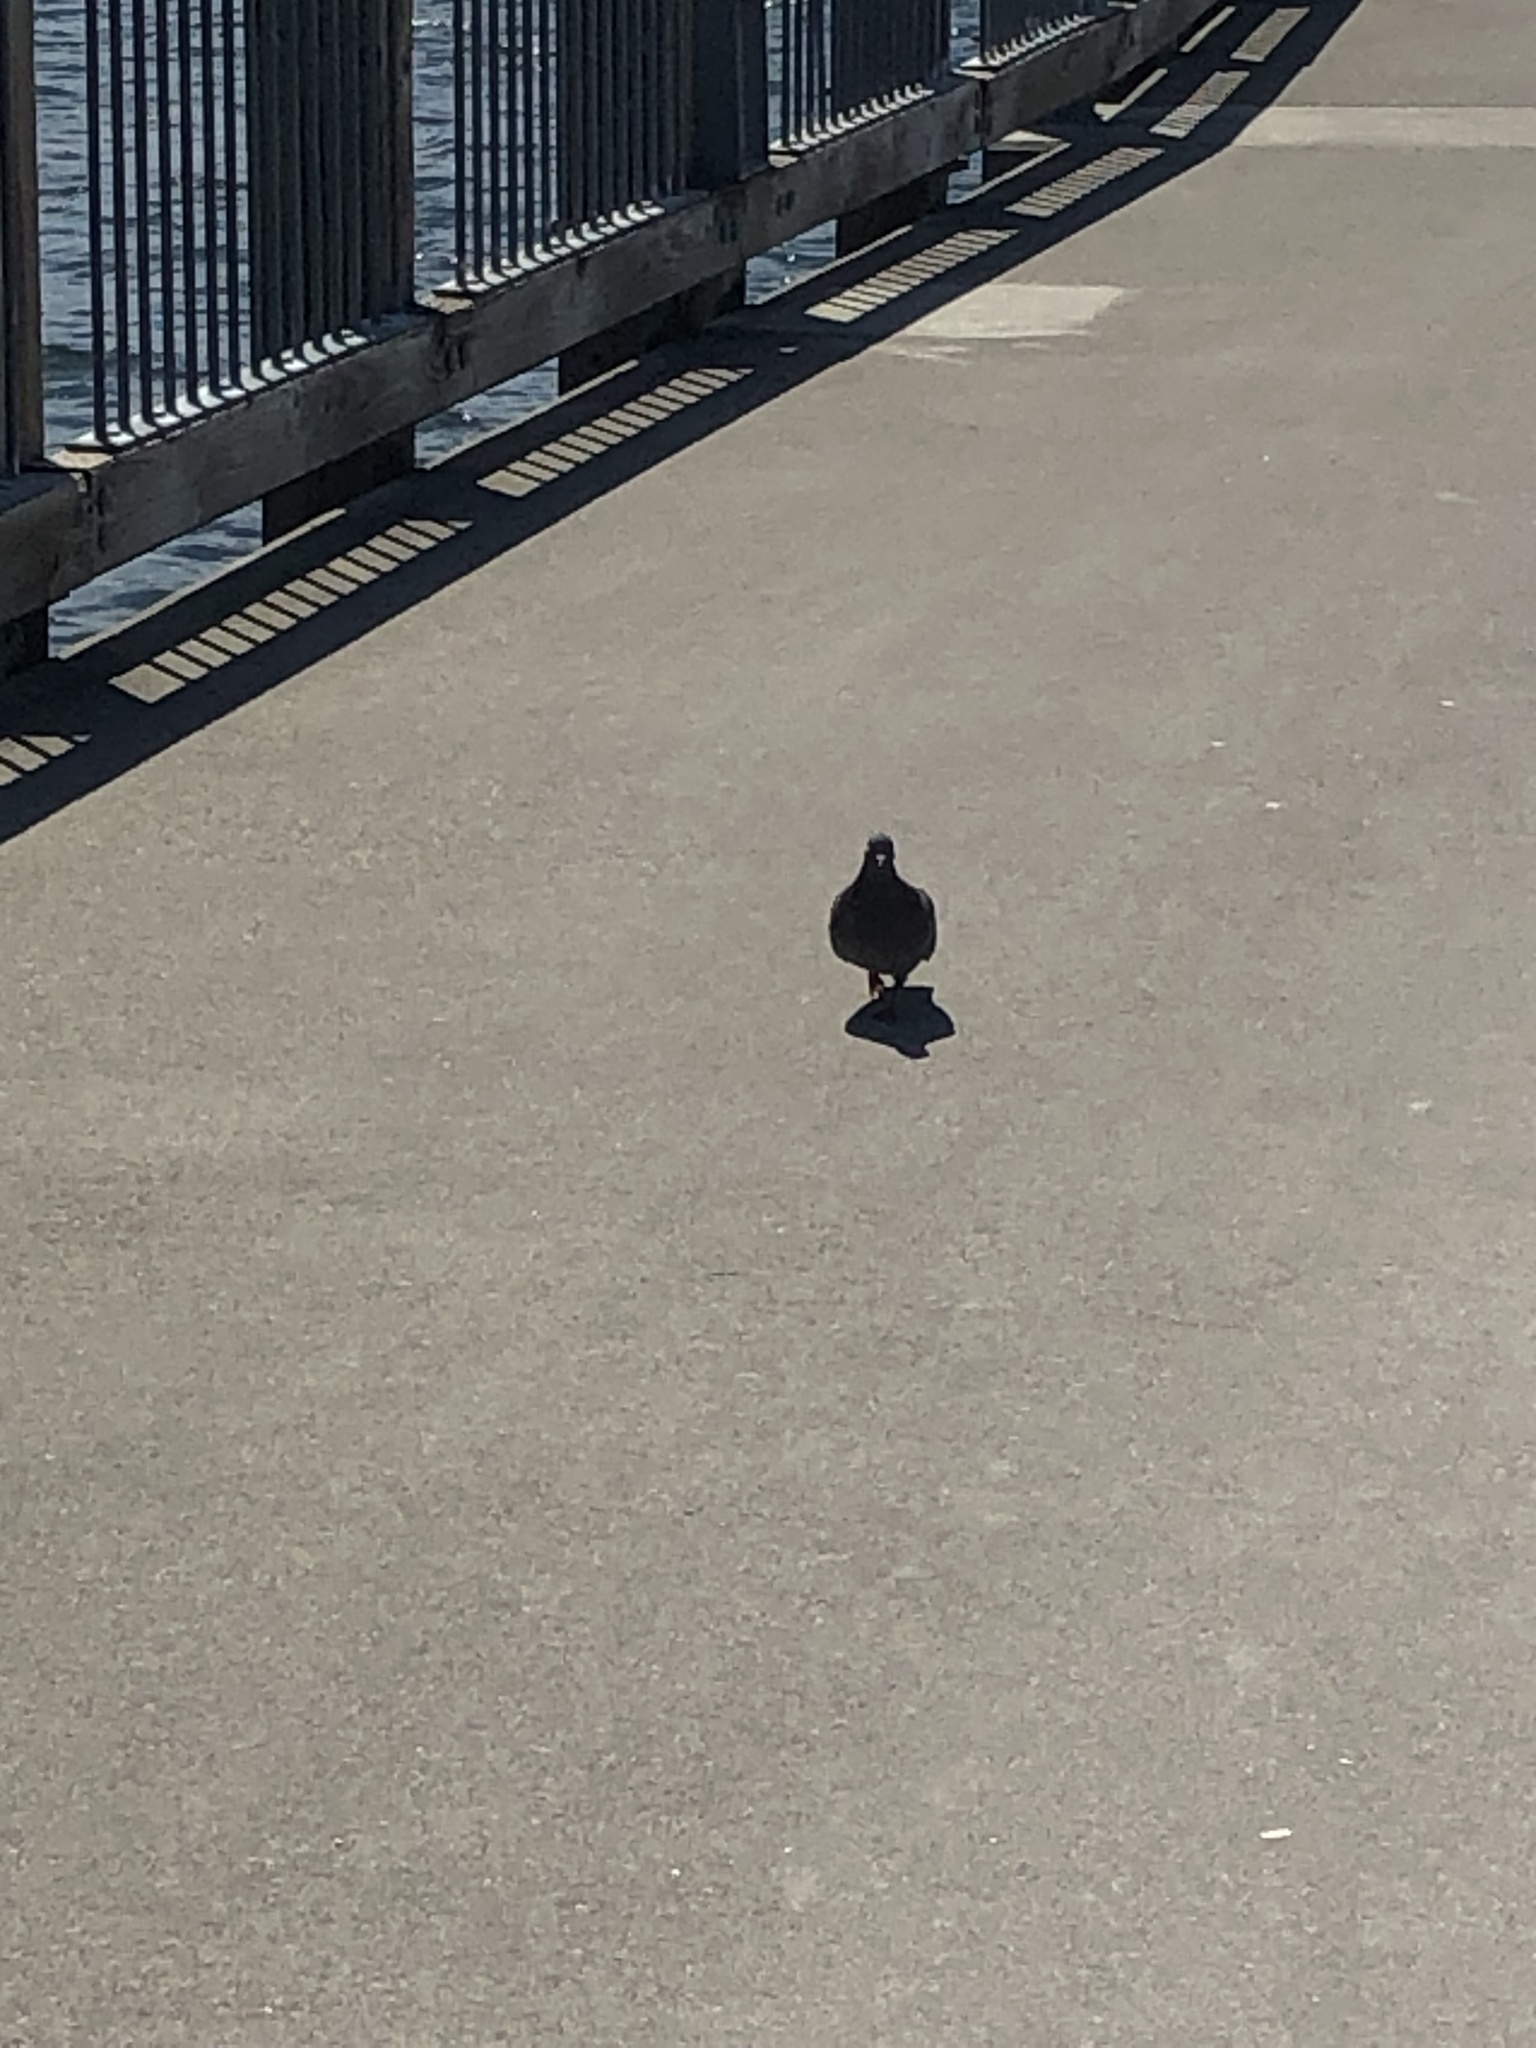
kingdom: Animalia
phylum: Chordata
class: Aves
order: Columbiformes
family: Columbidae
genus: Columba
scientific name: Columba livia
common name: Rock pigeon
